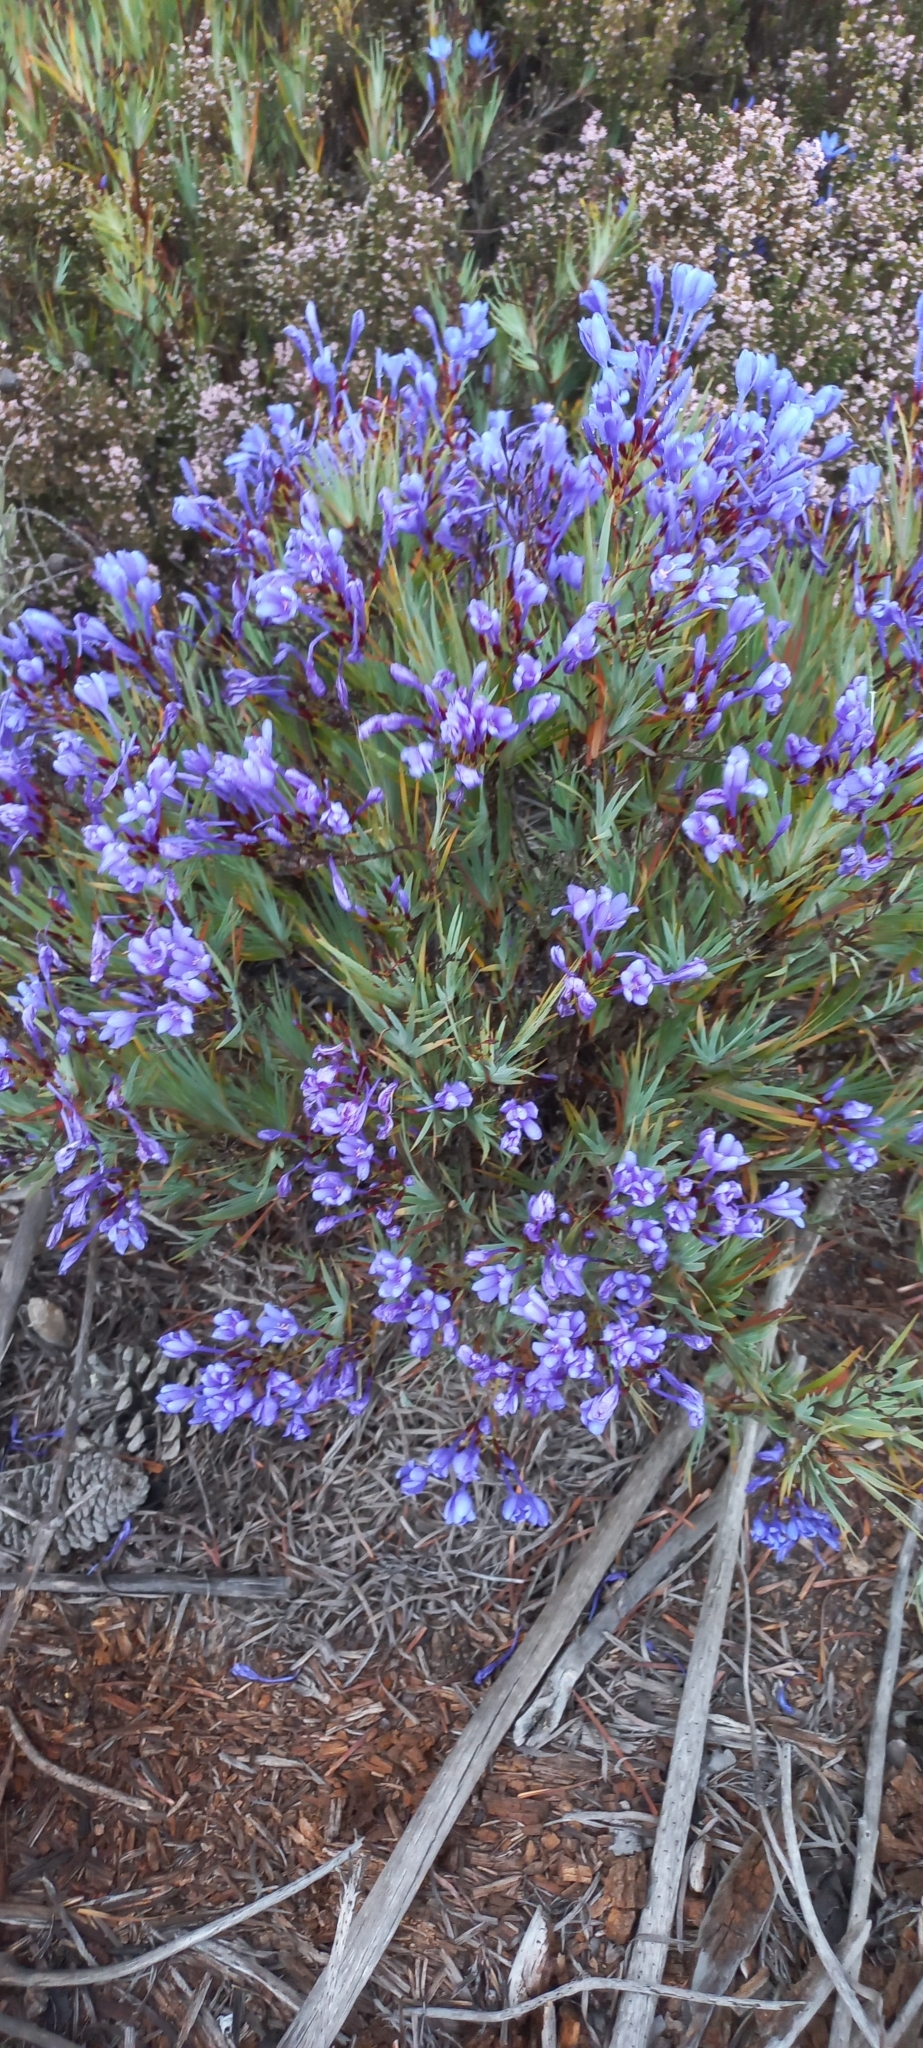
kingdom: Plantae
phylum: Tracheophyta
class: Liliopsida
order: Asparagales
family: Iridaceae
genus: Nivenia
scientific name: Nivenia stokoei
